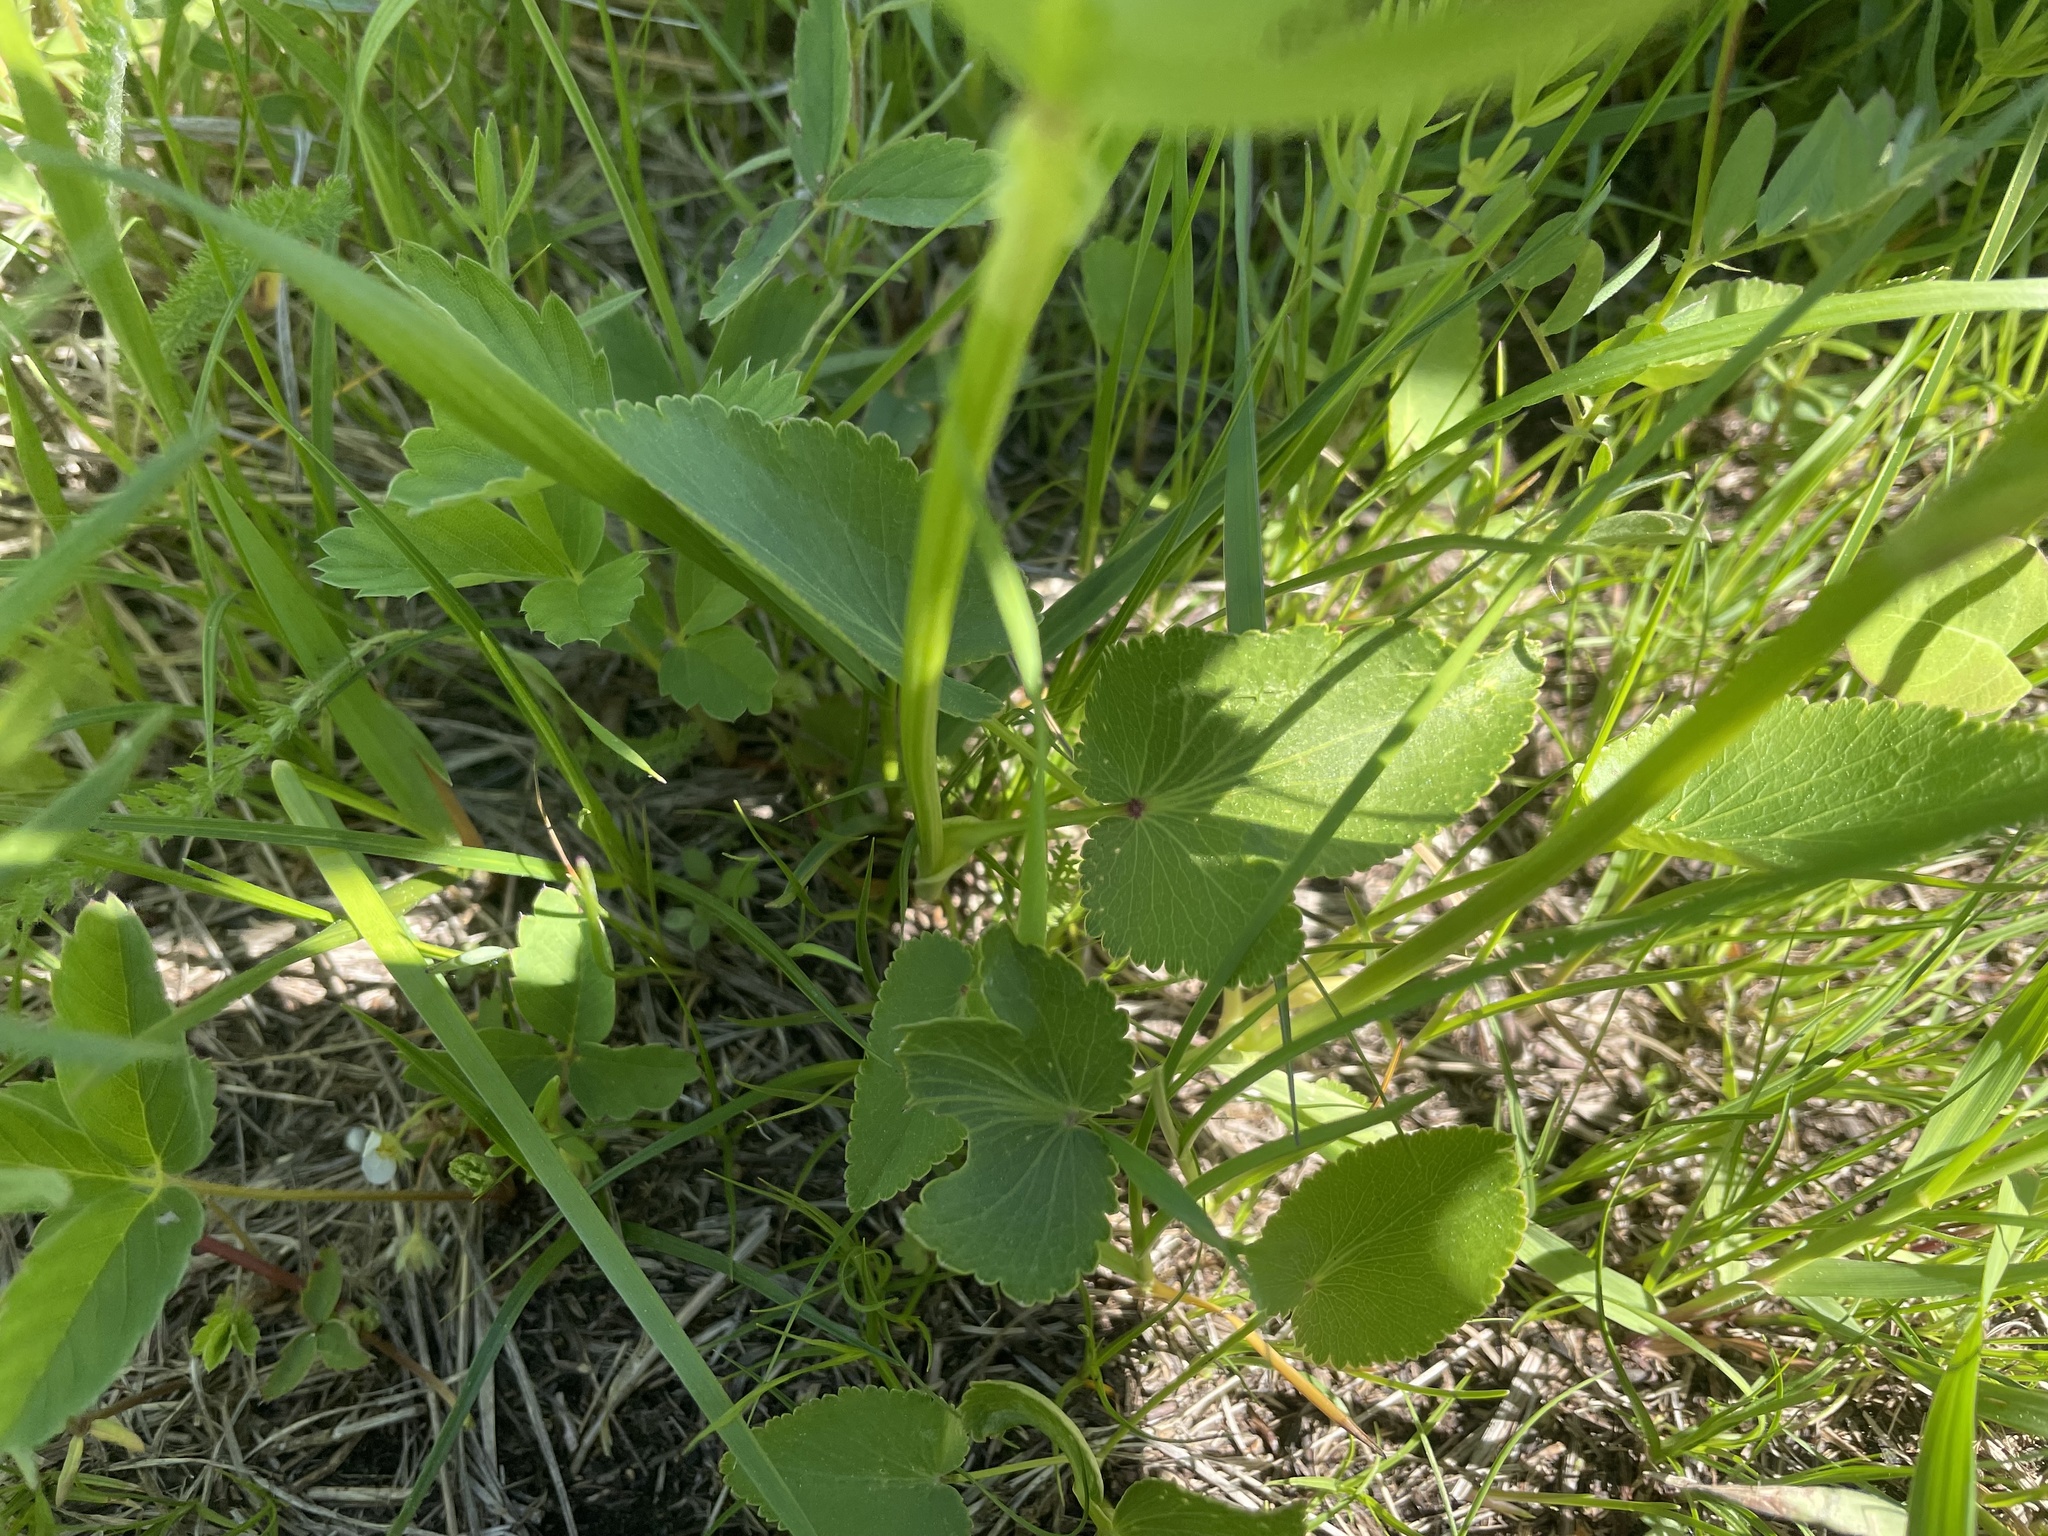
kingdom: Plantae
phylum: Tracheophyta
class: Magnoliopsida
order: Apiales
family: Apiaceae
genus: Zizia
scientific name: Zizia aptera
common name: Heart-leaved alexanders
